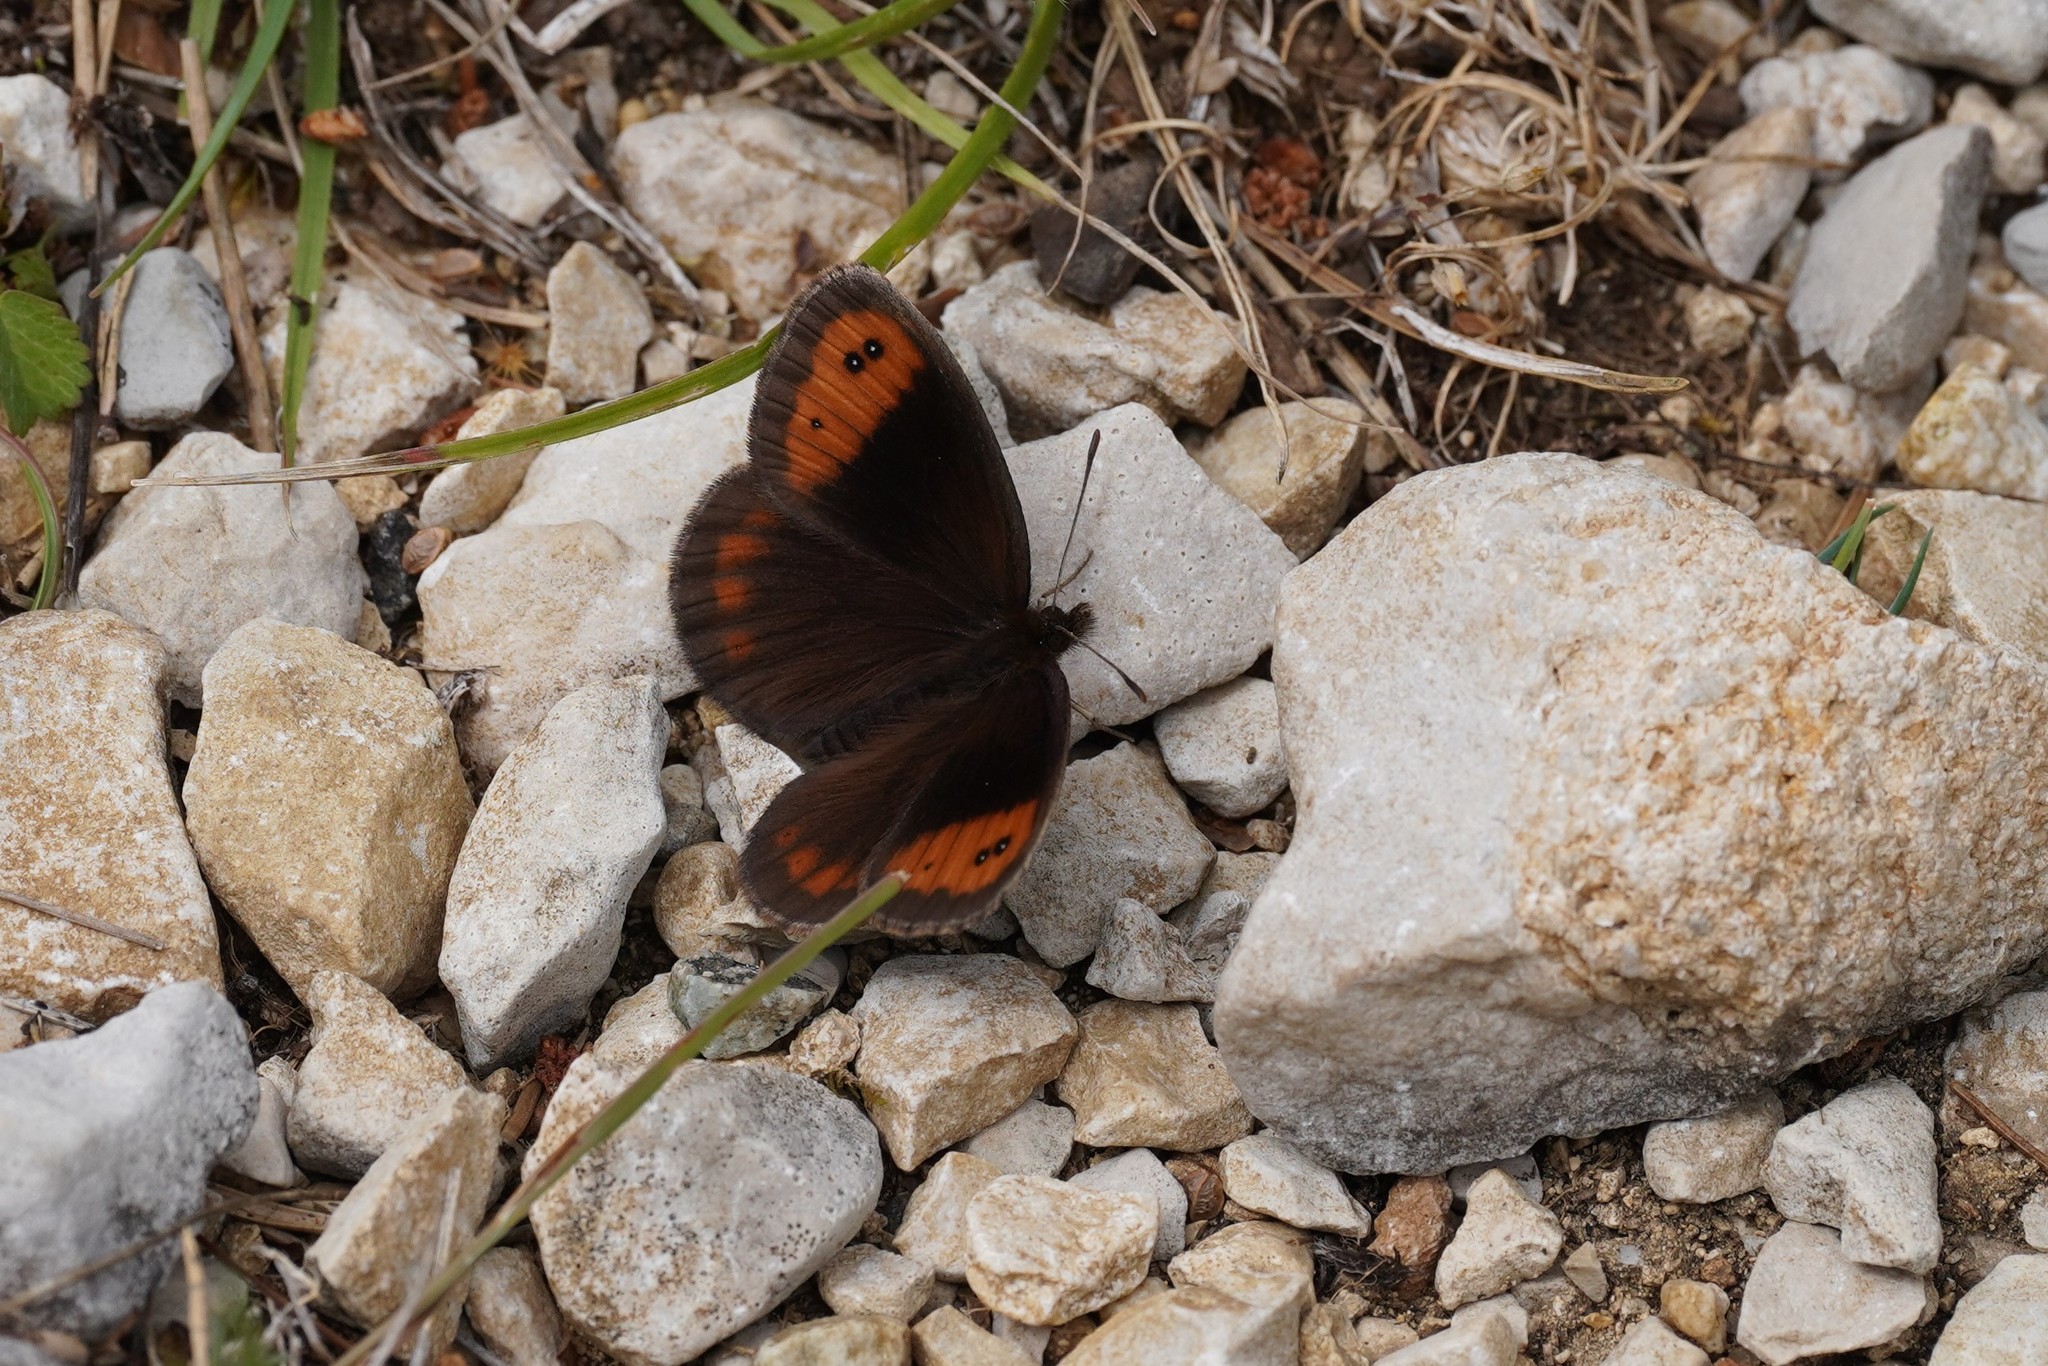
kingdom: Animalia
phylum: Arthropoda
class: Insecta
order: Lepidoptera
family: Nymphalidae
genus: Erebia
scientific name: Erebia neoridas
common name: Autumn ringlet
